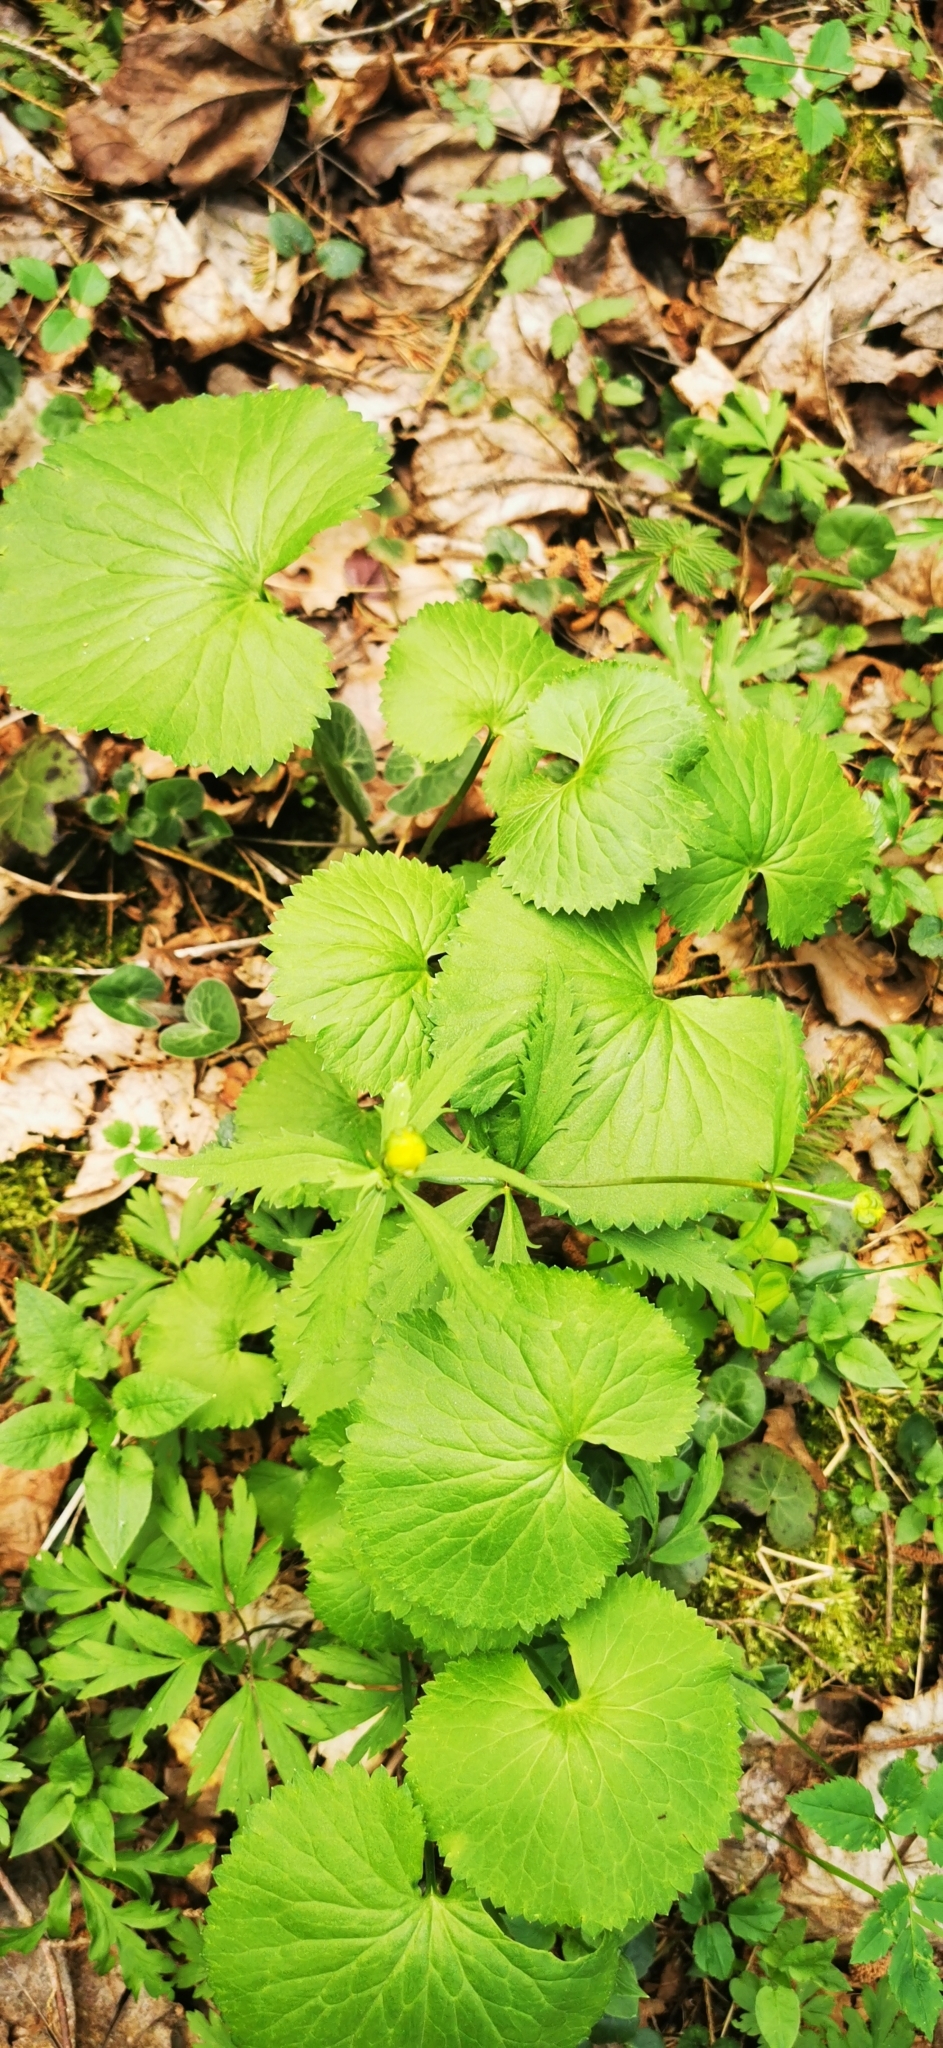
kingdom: Plantae
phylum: Tracheophyta
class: Magnoliopsida
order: Ranunculales
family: Ranunculaceae
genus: Ranunculus
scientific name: Ranunculus cassubicus
